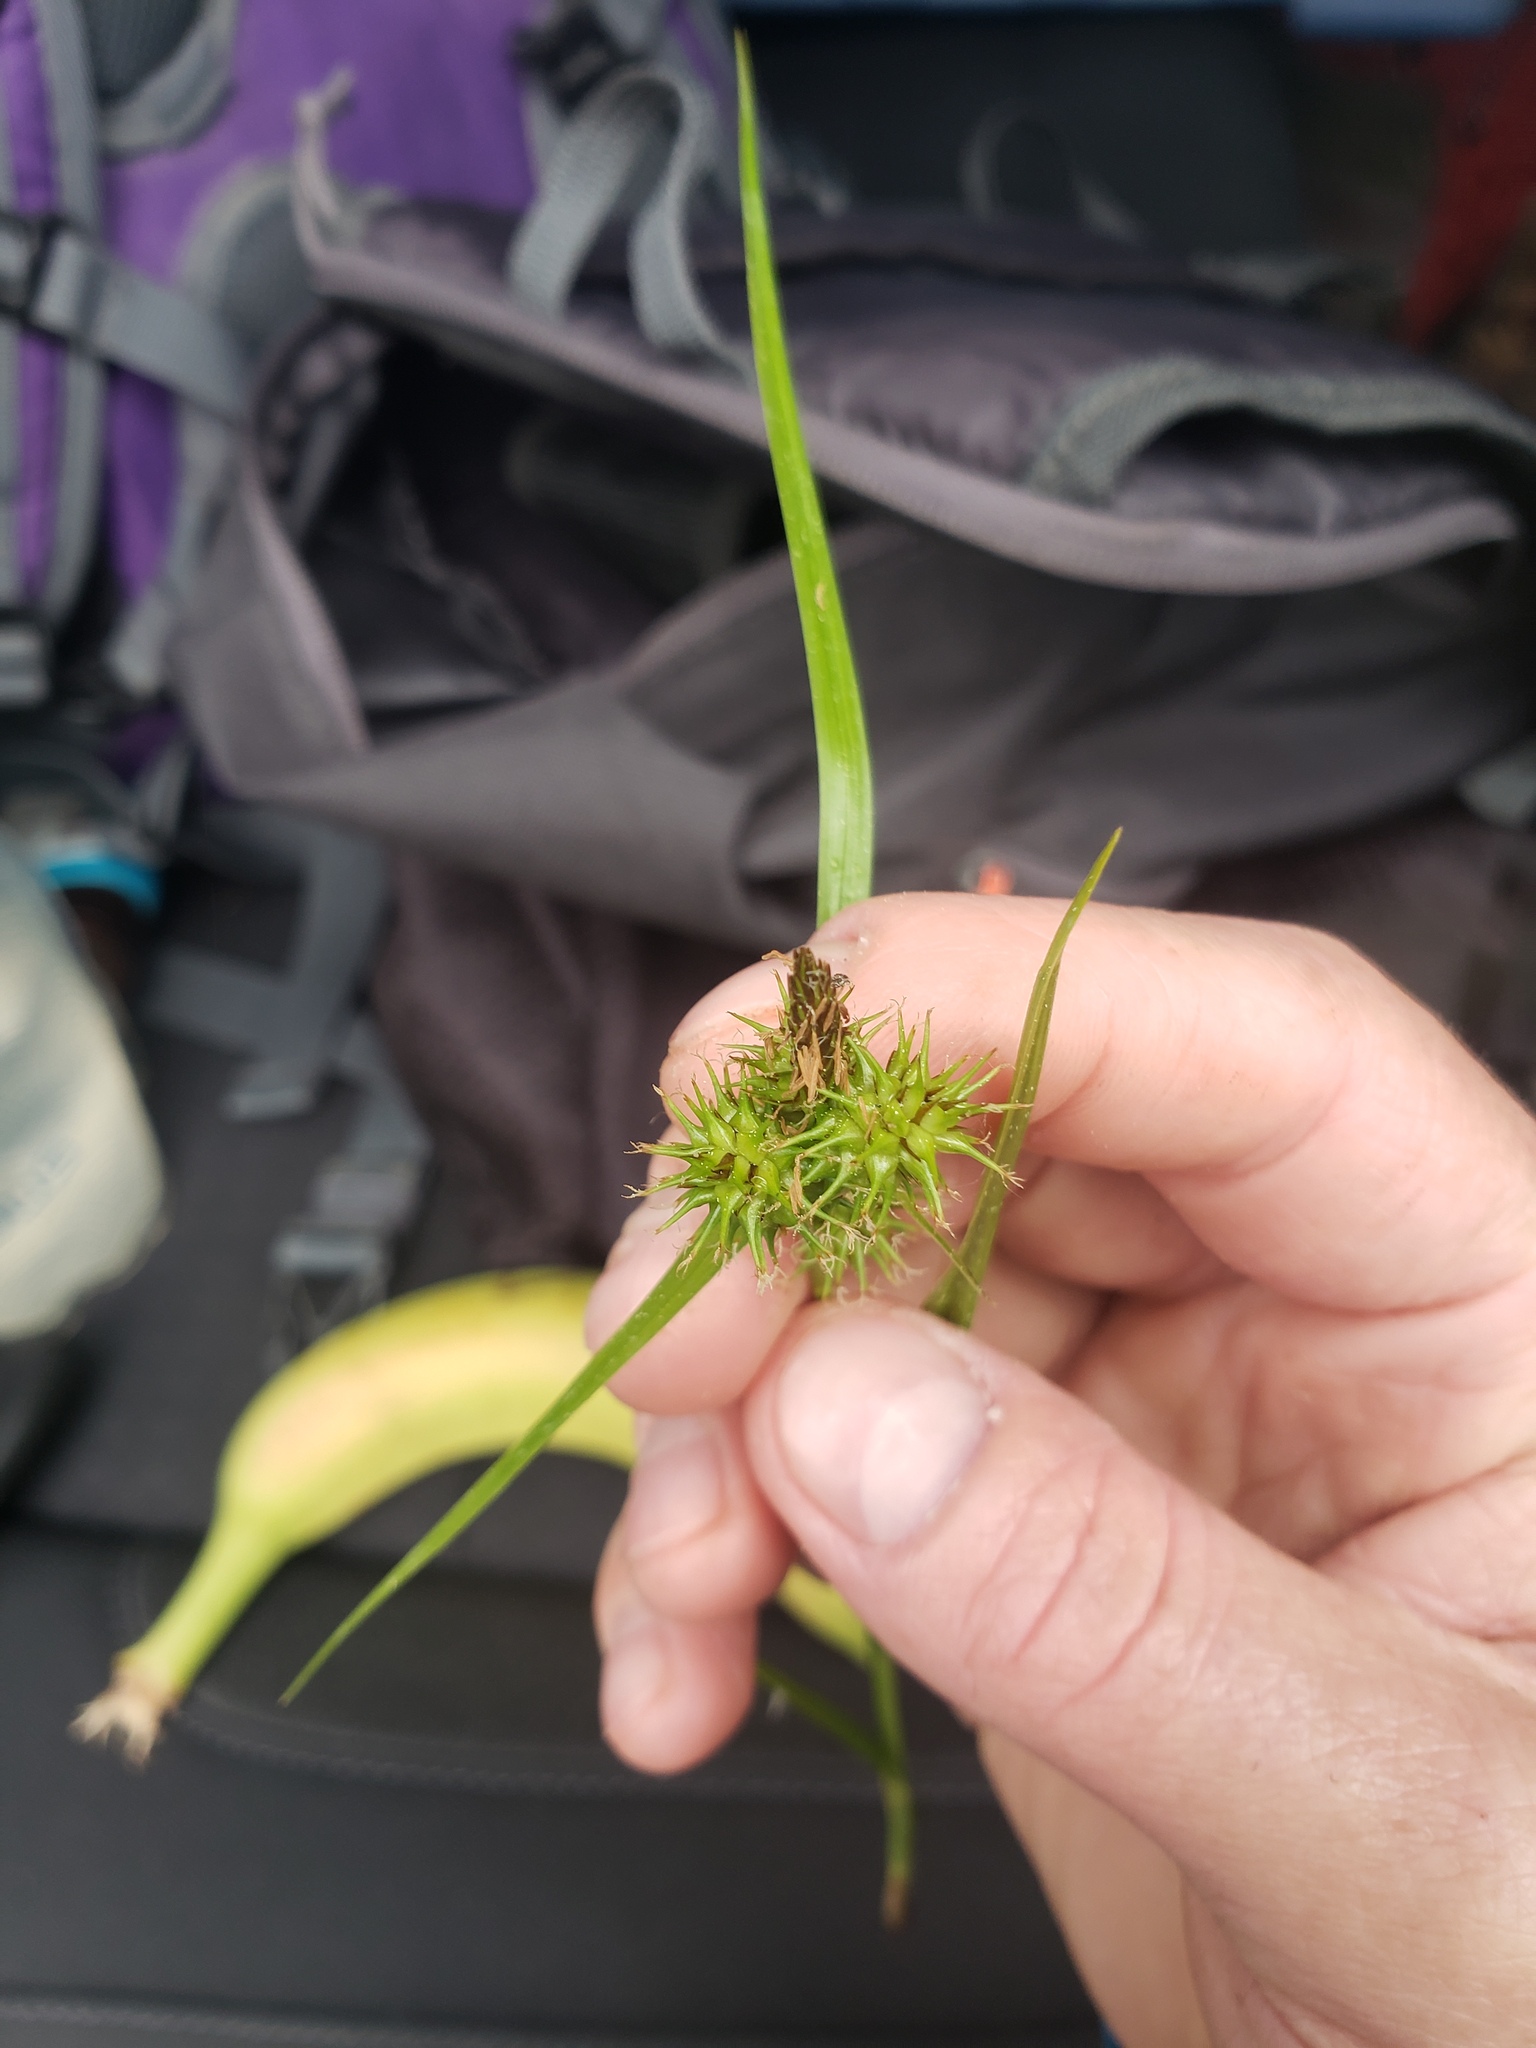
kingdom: Plantae
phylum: Tracheophyta
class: Liliopsida
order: Poales
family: Cyperaceae
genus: Carex
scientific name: Carex flava
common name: Large yellow-sedge
